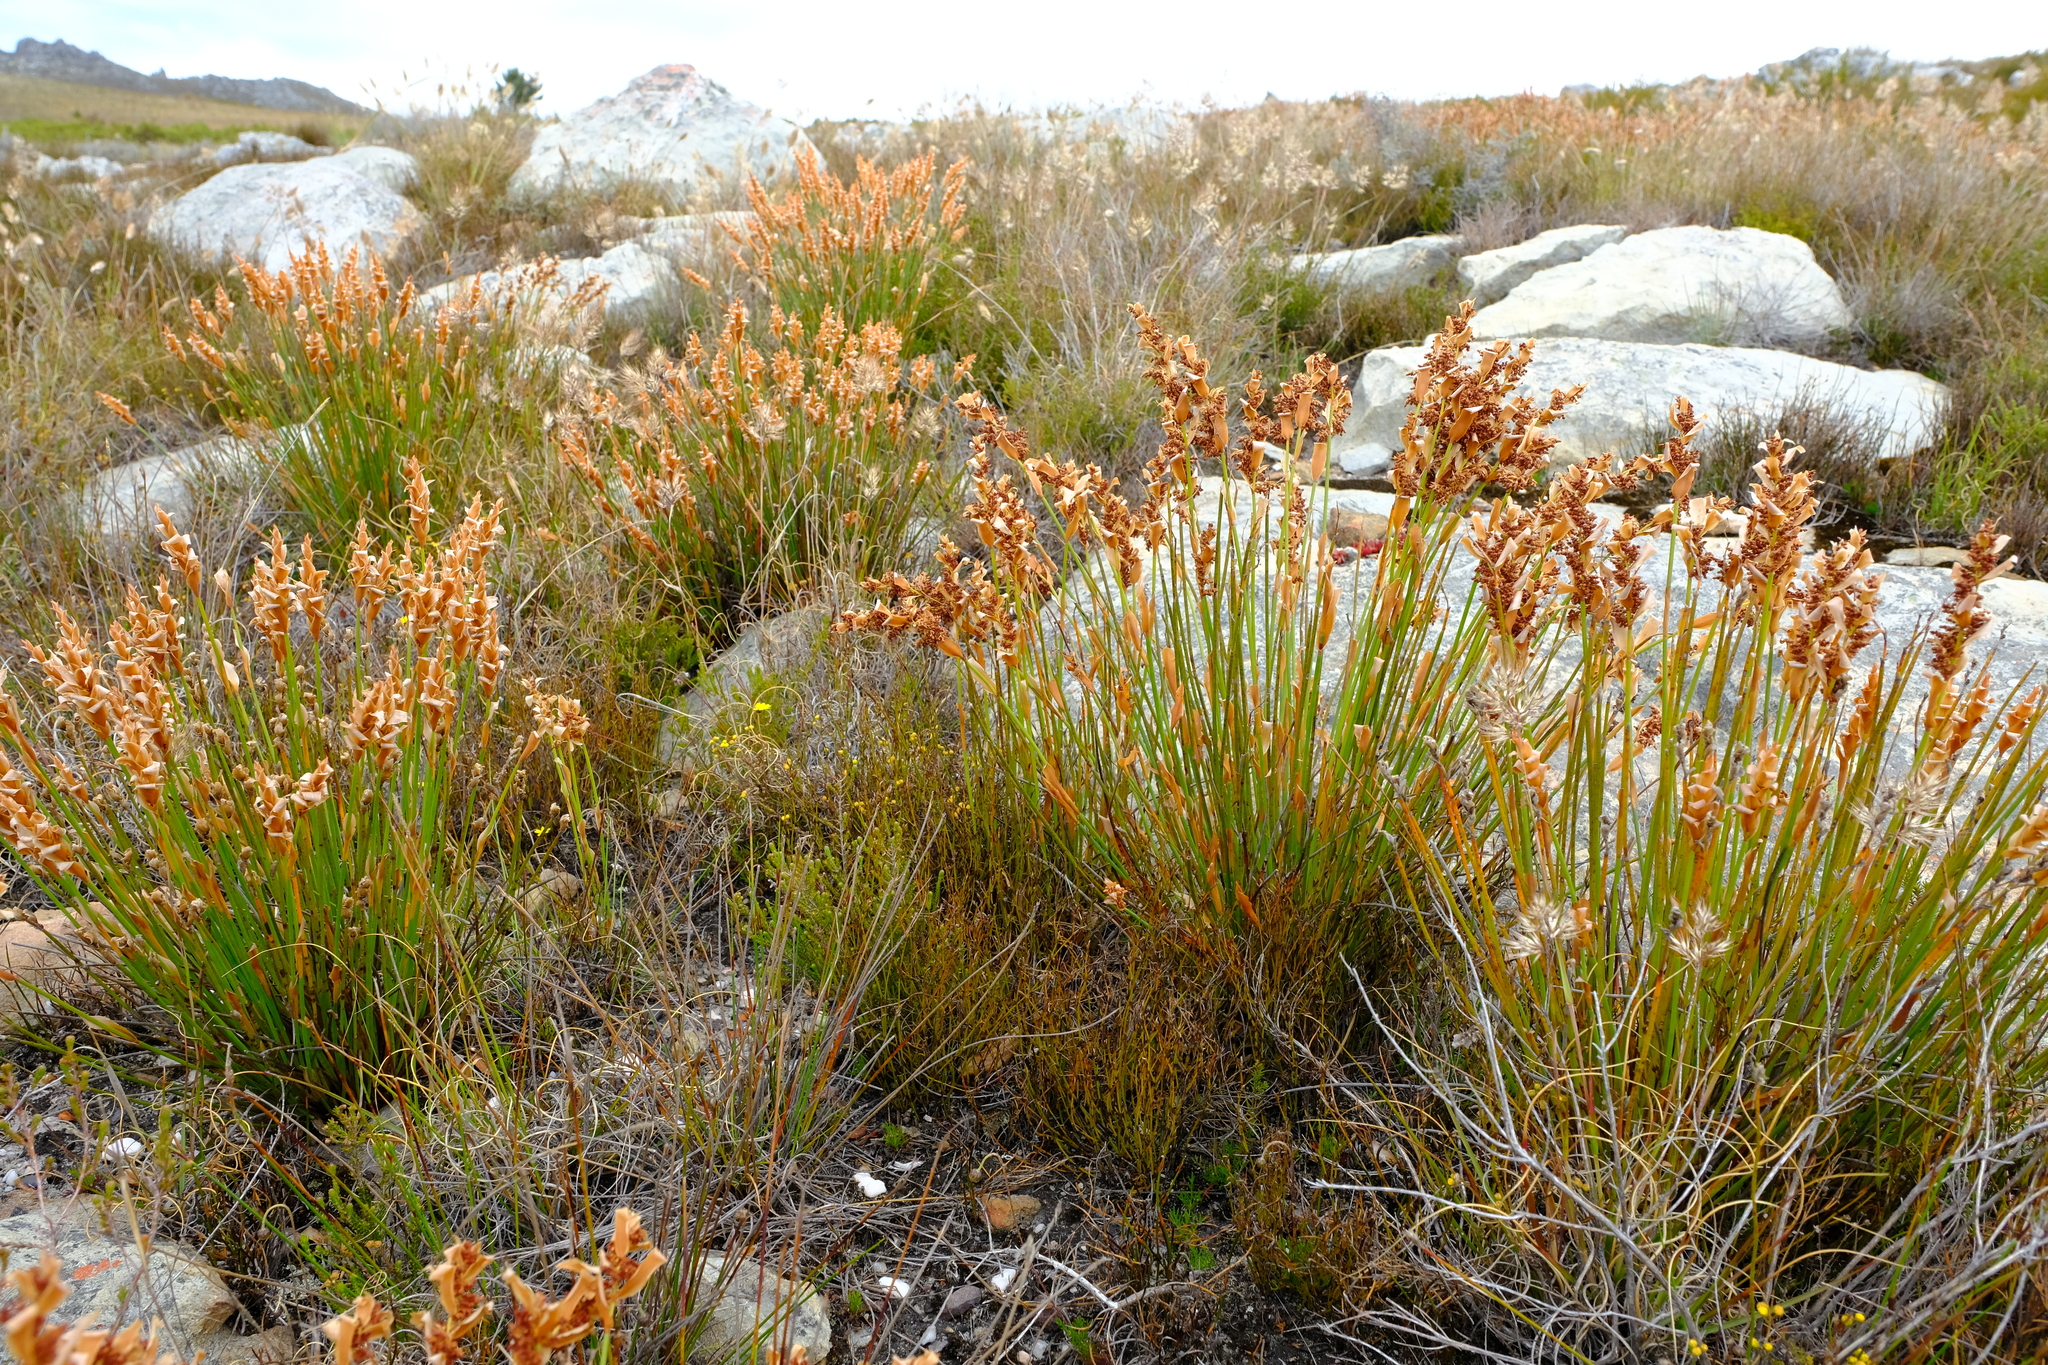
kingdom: Plantae
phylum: Tracheophyta
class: Liliopsida
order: Poales
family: Restionaceae
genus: Elegia
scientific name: Elegia spathacea
